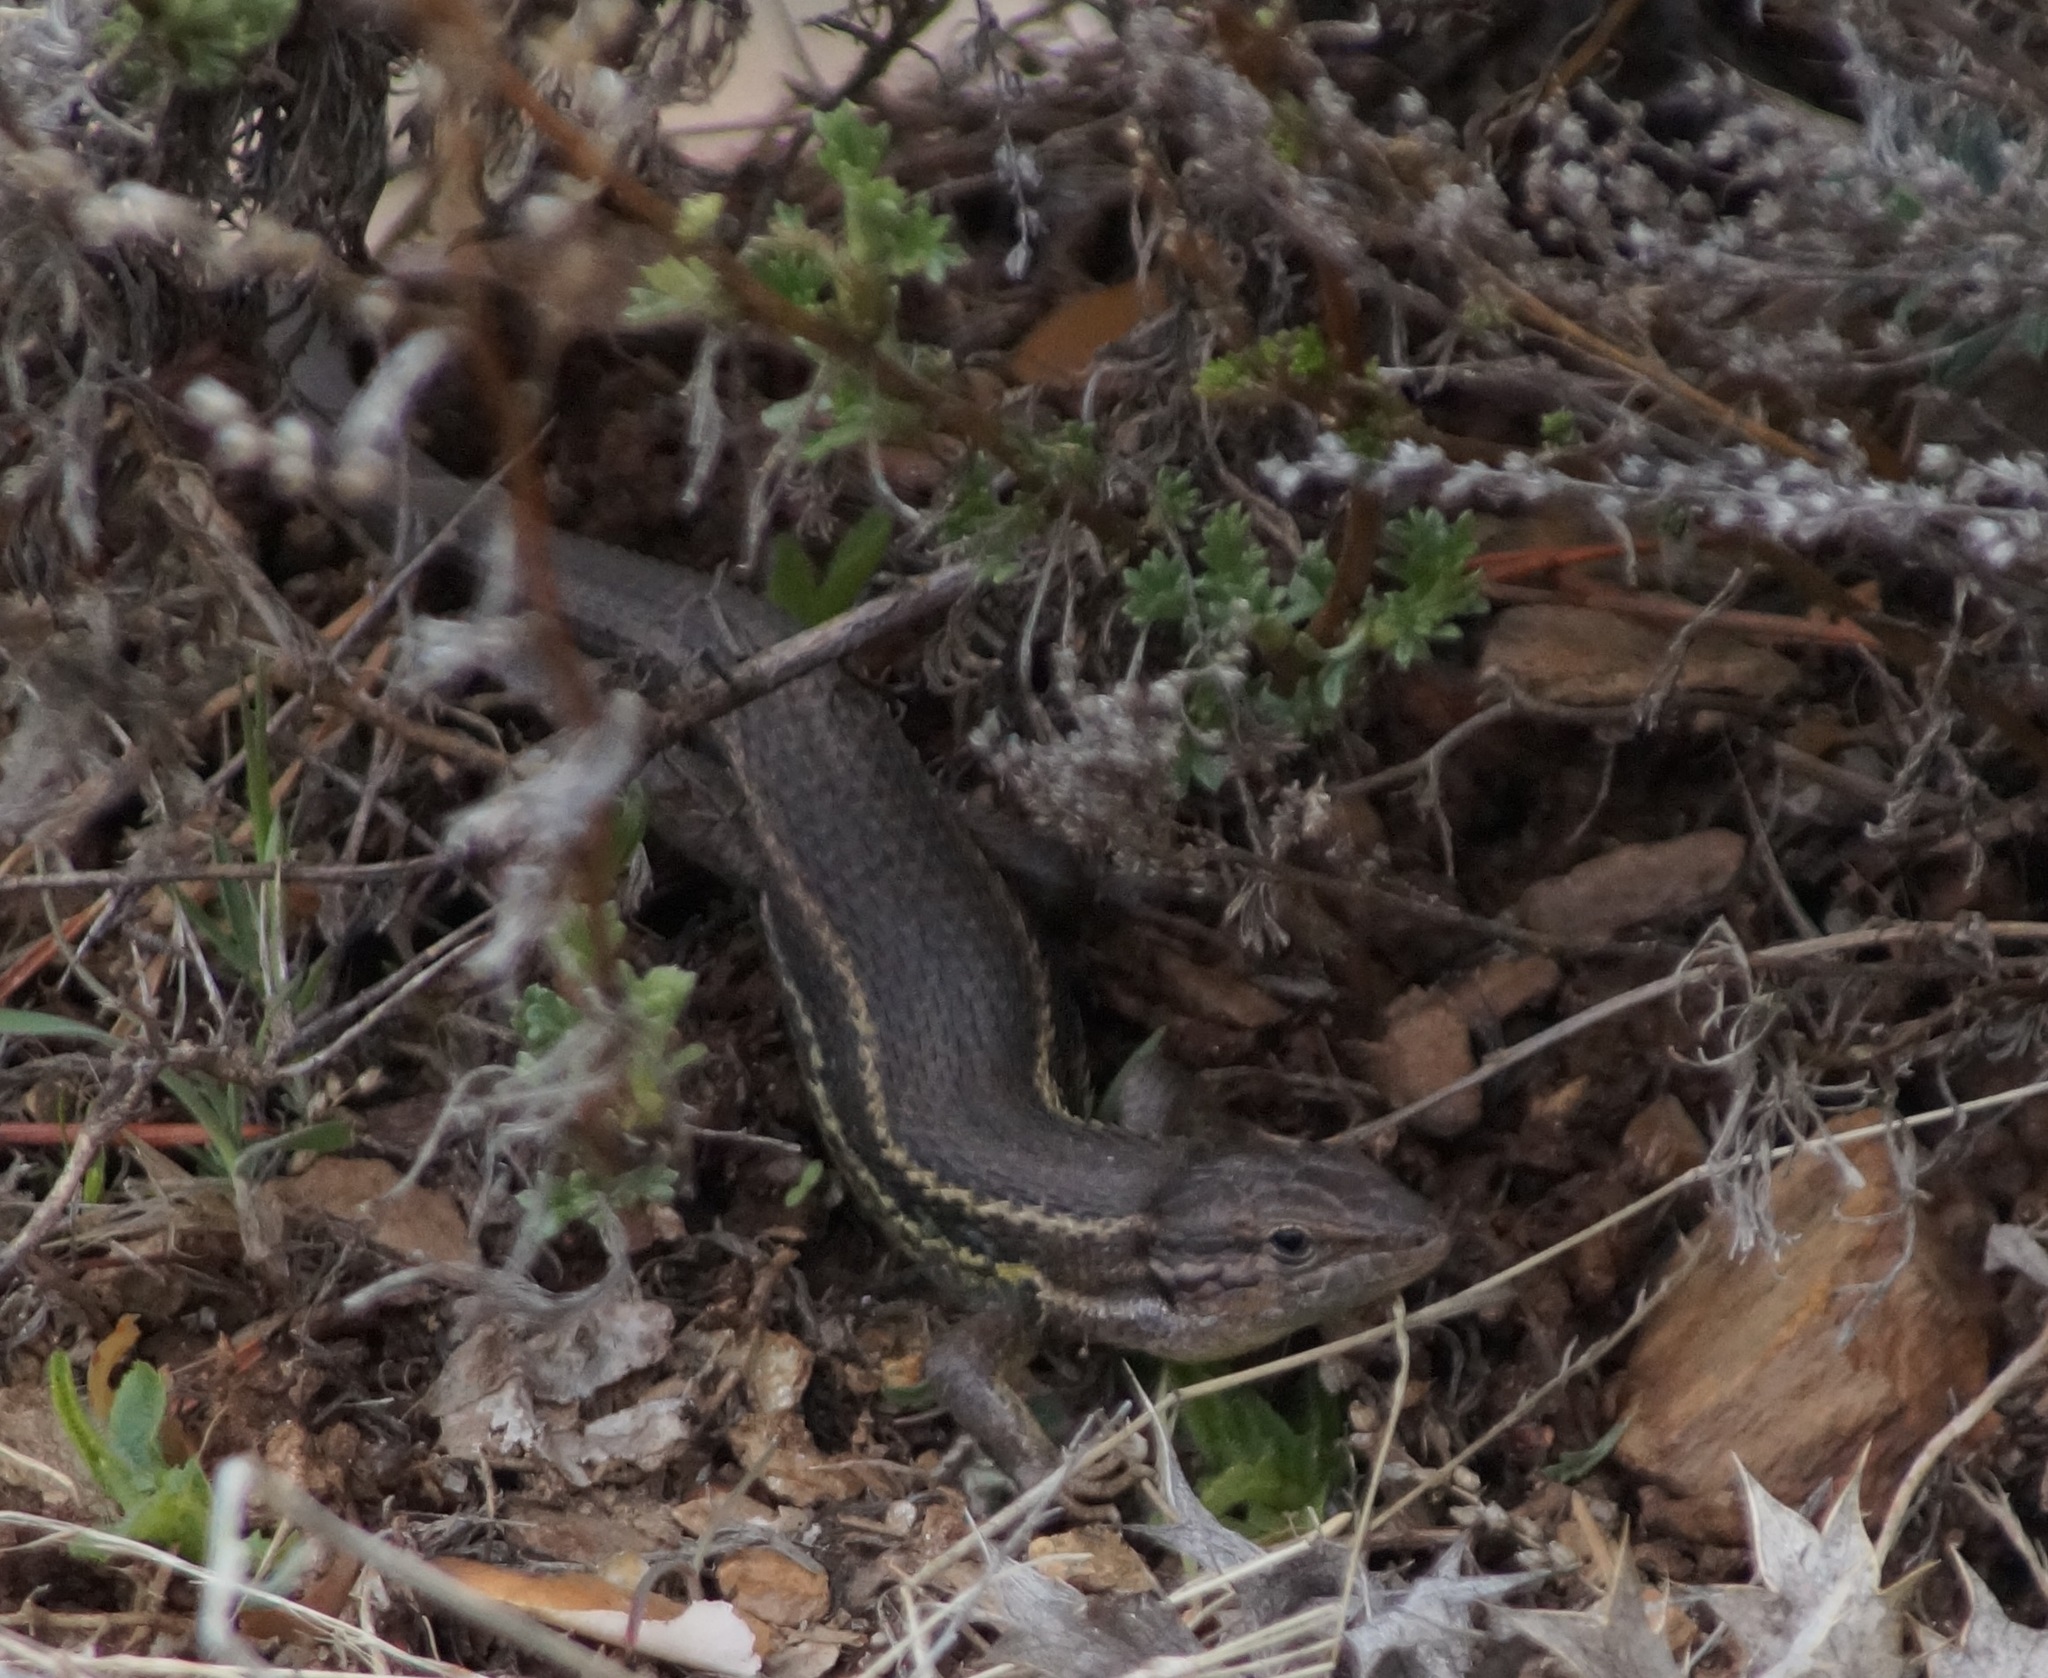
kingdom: Animalia
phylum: Chordata
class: Squamata
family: Lacertidae
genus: Psammodromus
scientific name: Psammodromus algirus
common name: Algerian psammodromus
